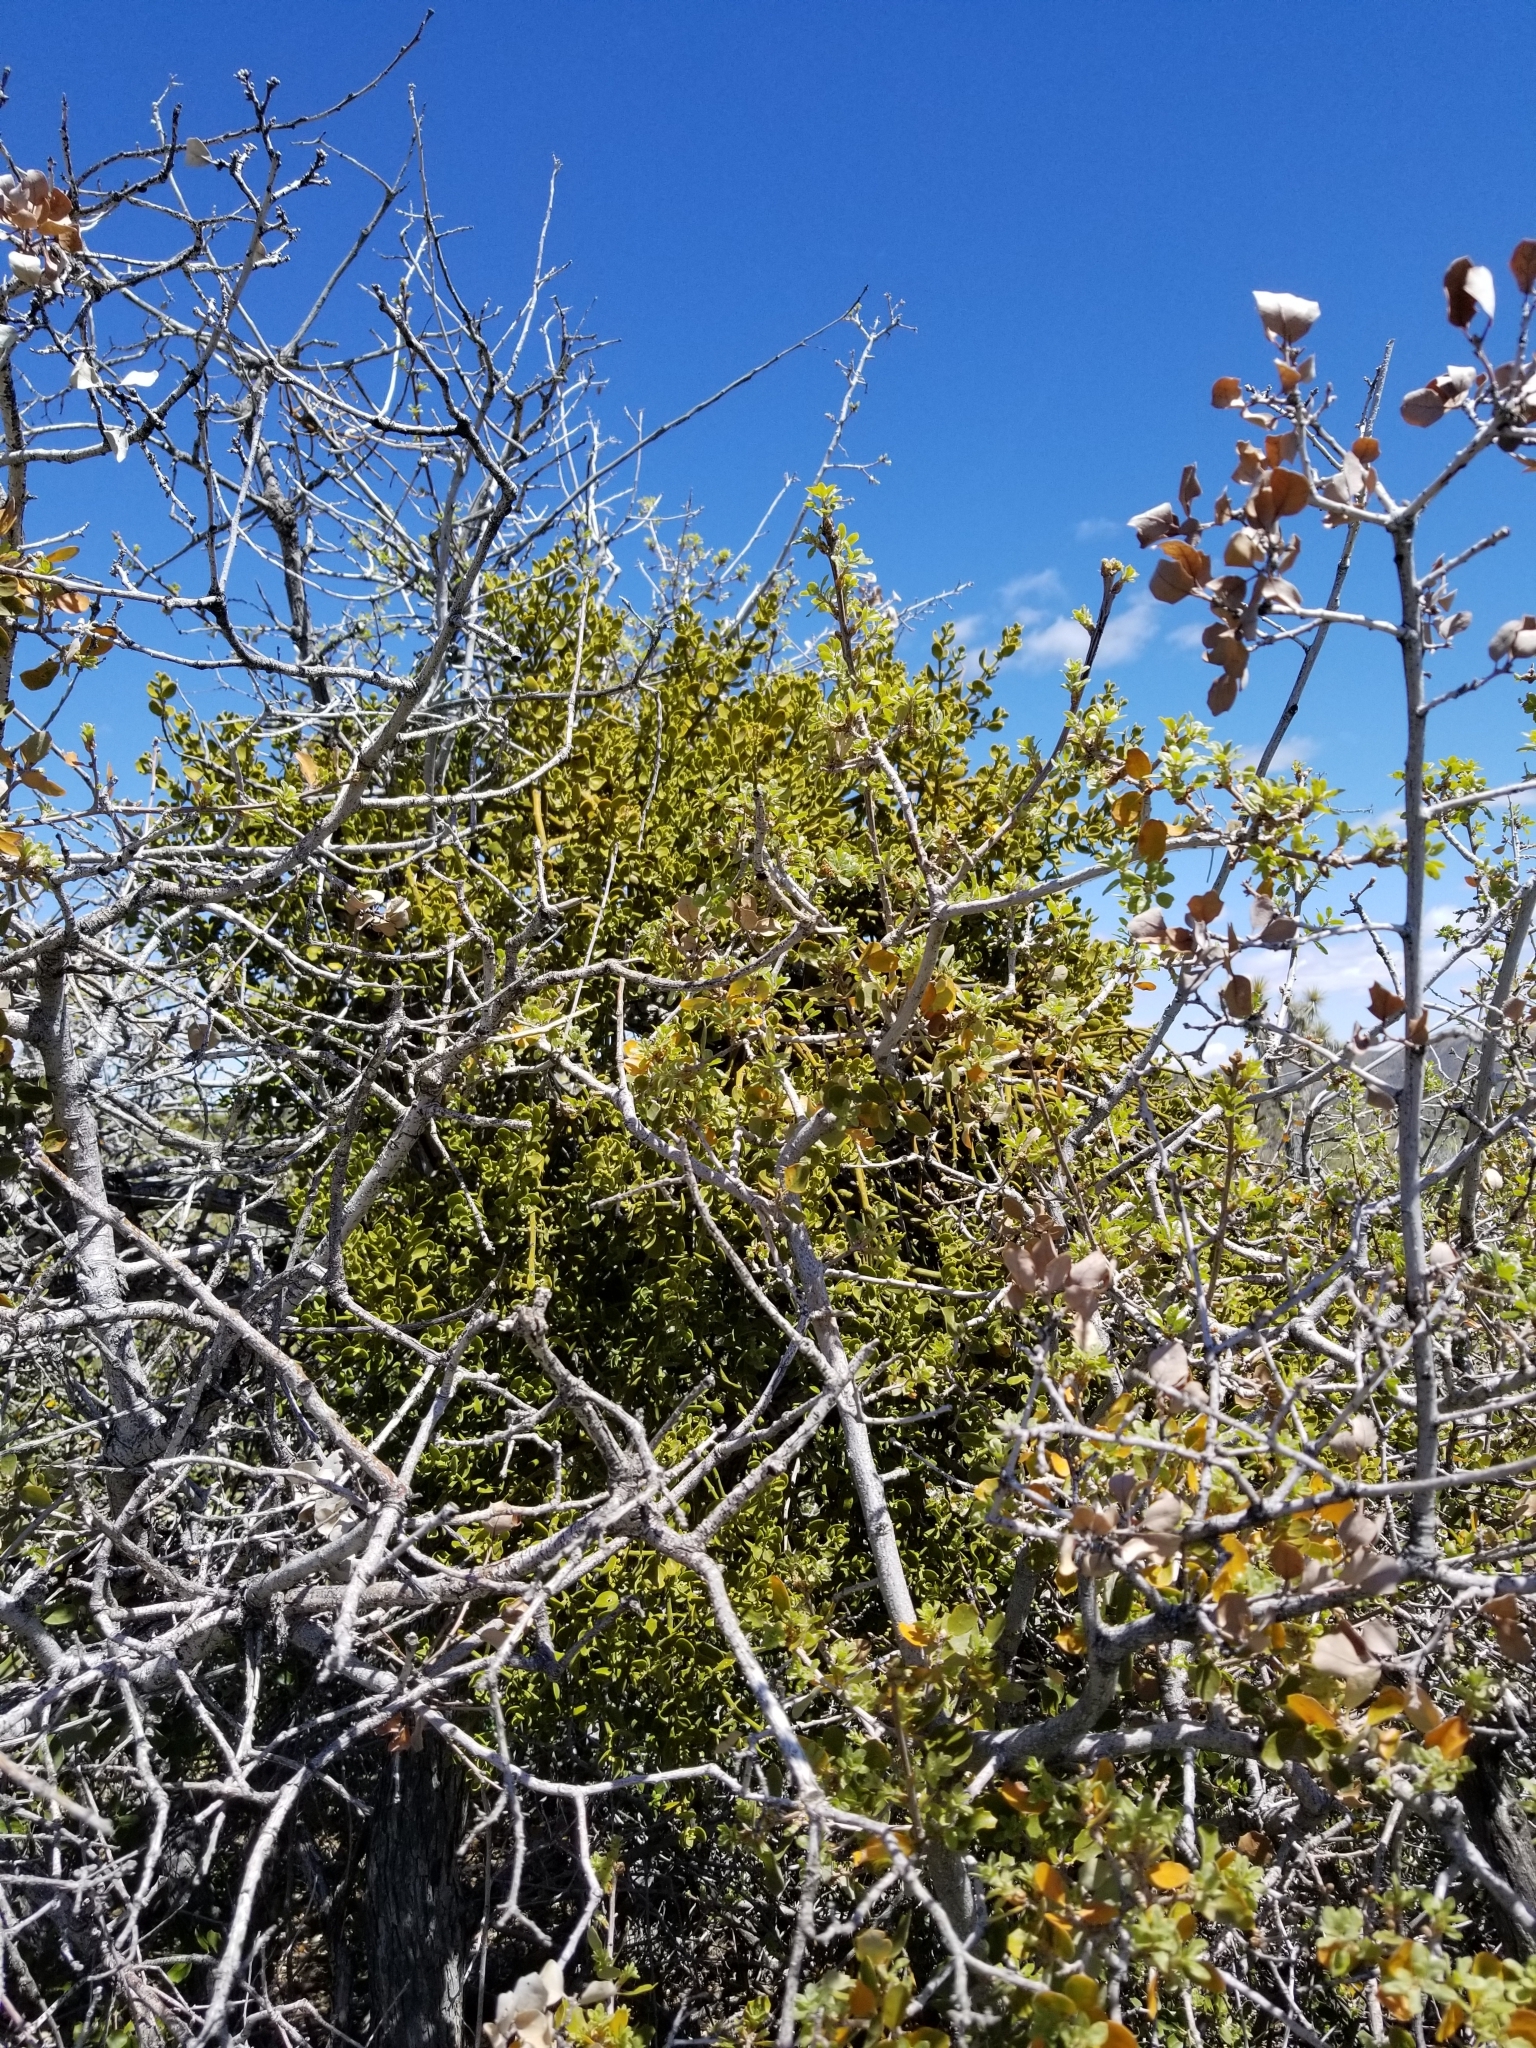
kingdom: Plantae
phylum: Tracheophyta
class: Magnoliopsida
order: Santalales
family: Viscaceae
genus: Phoradendron
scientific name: Phoradendron leucarpum
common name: Pacific mistletoe
